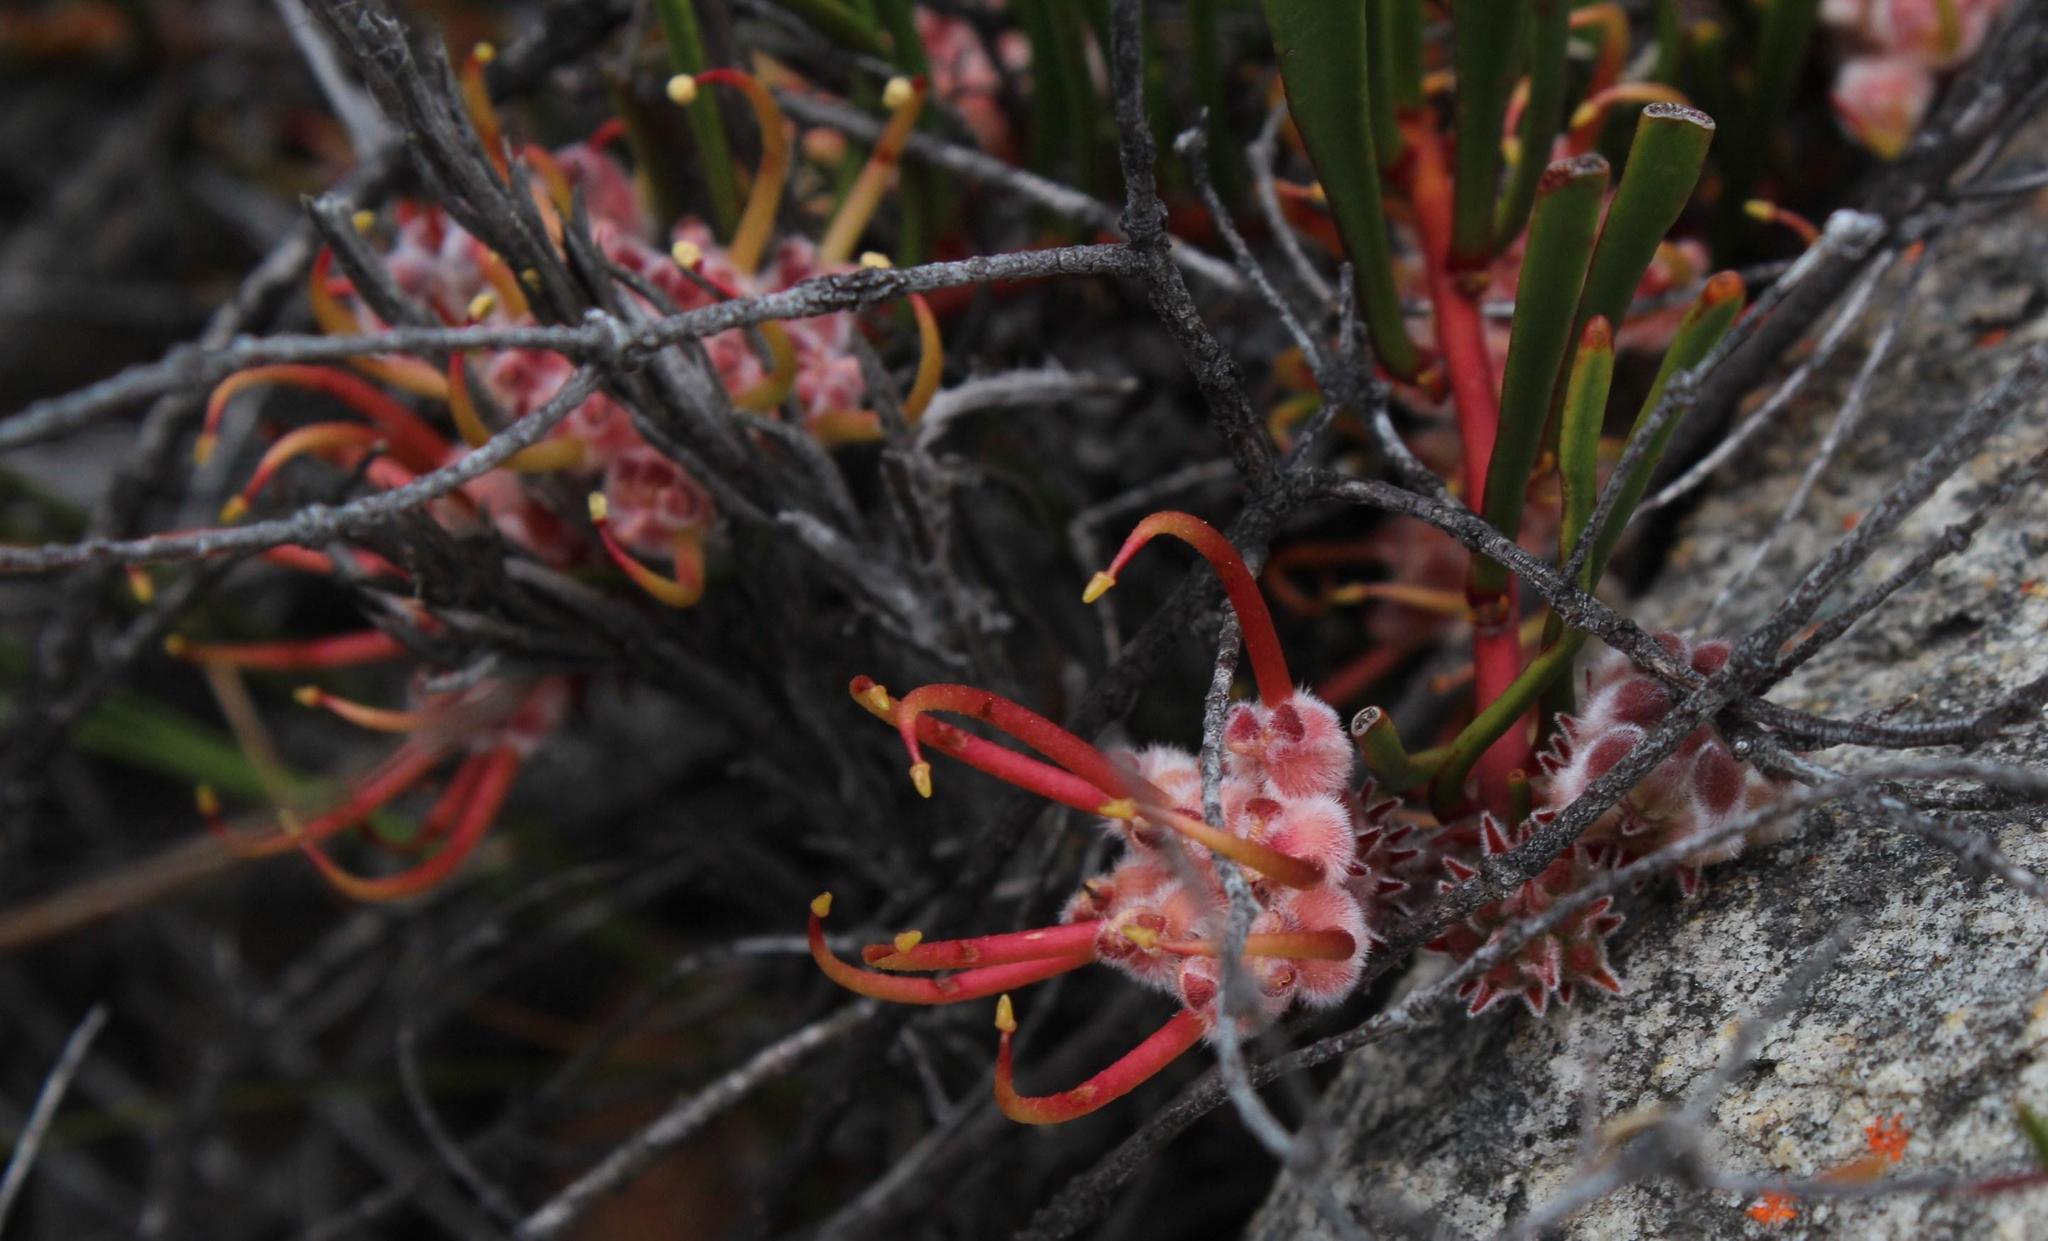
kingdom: Plantae
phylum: Tracheophyta
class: Magnoliopsida
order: Proteales
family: Proteaceae
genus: Leucospermum
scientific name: Leucospermum harpagonatum
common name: Mcgregor pincushion
